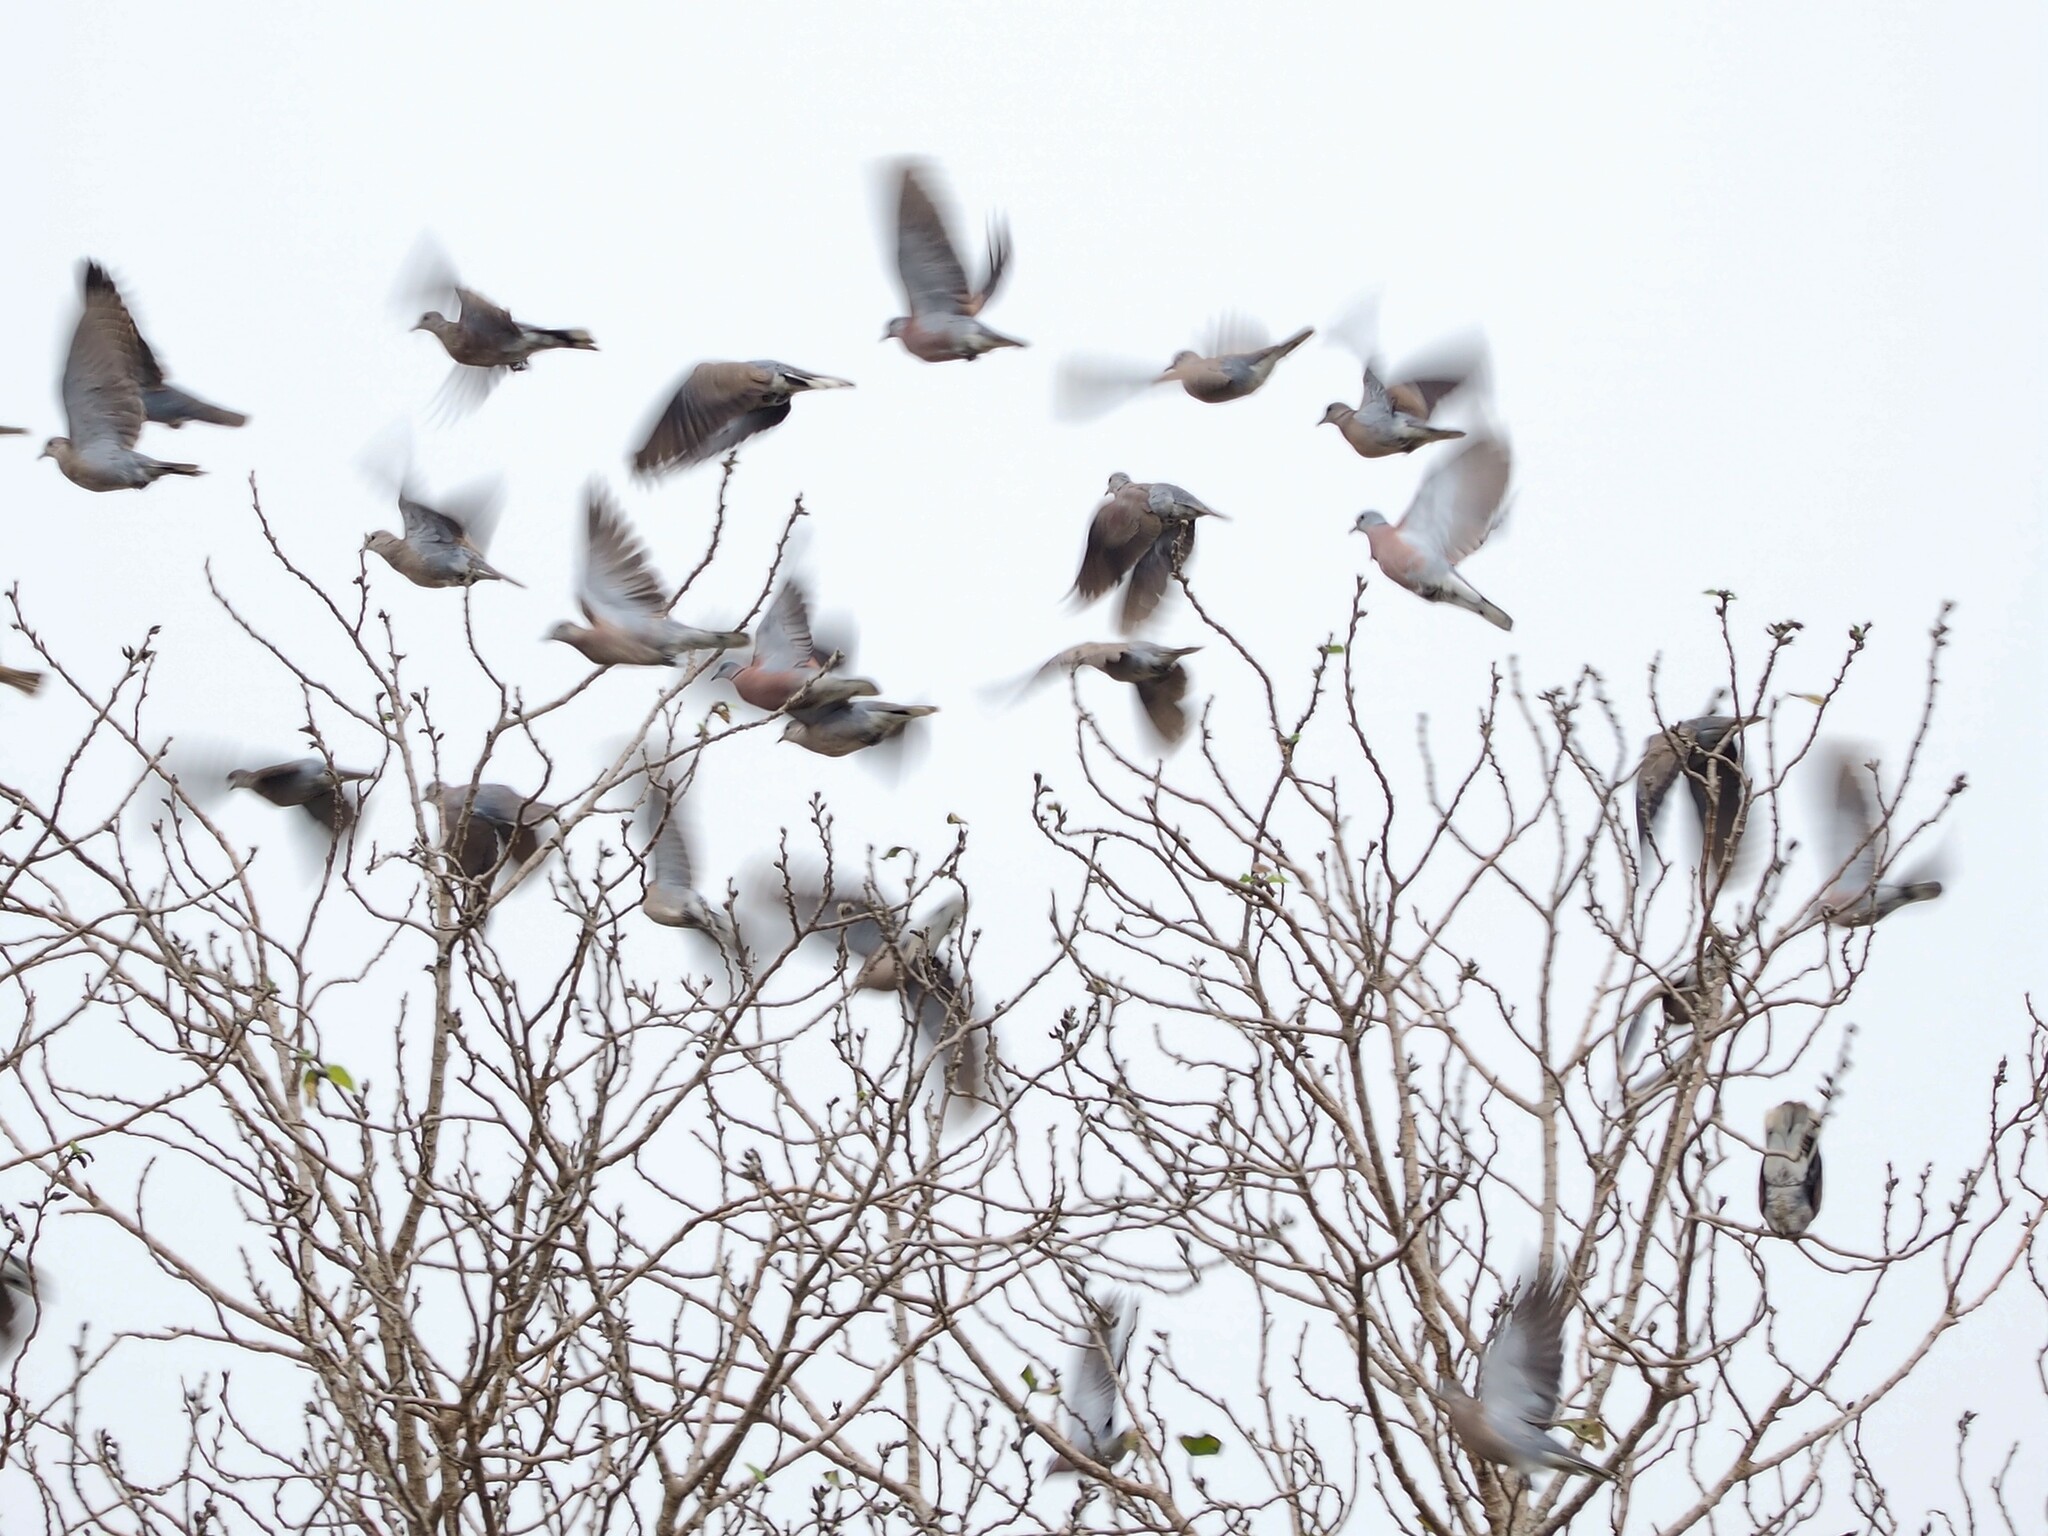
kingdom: Animalia
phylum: Chordata
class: Aves
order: Columbiformes
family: Columbidae
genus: Streptopelia
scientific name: Streptopelia tranquebarica
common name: Red turtle dove
